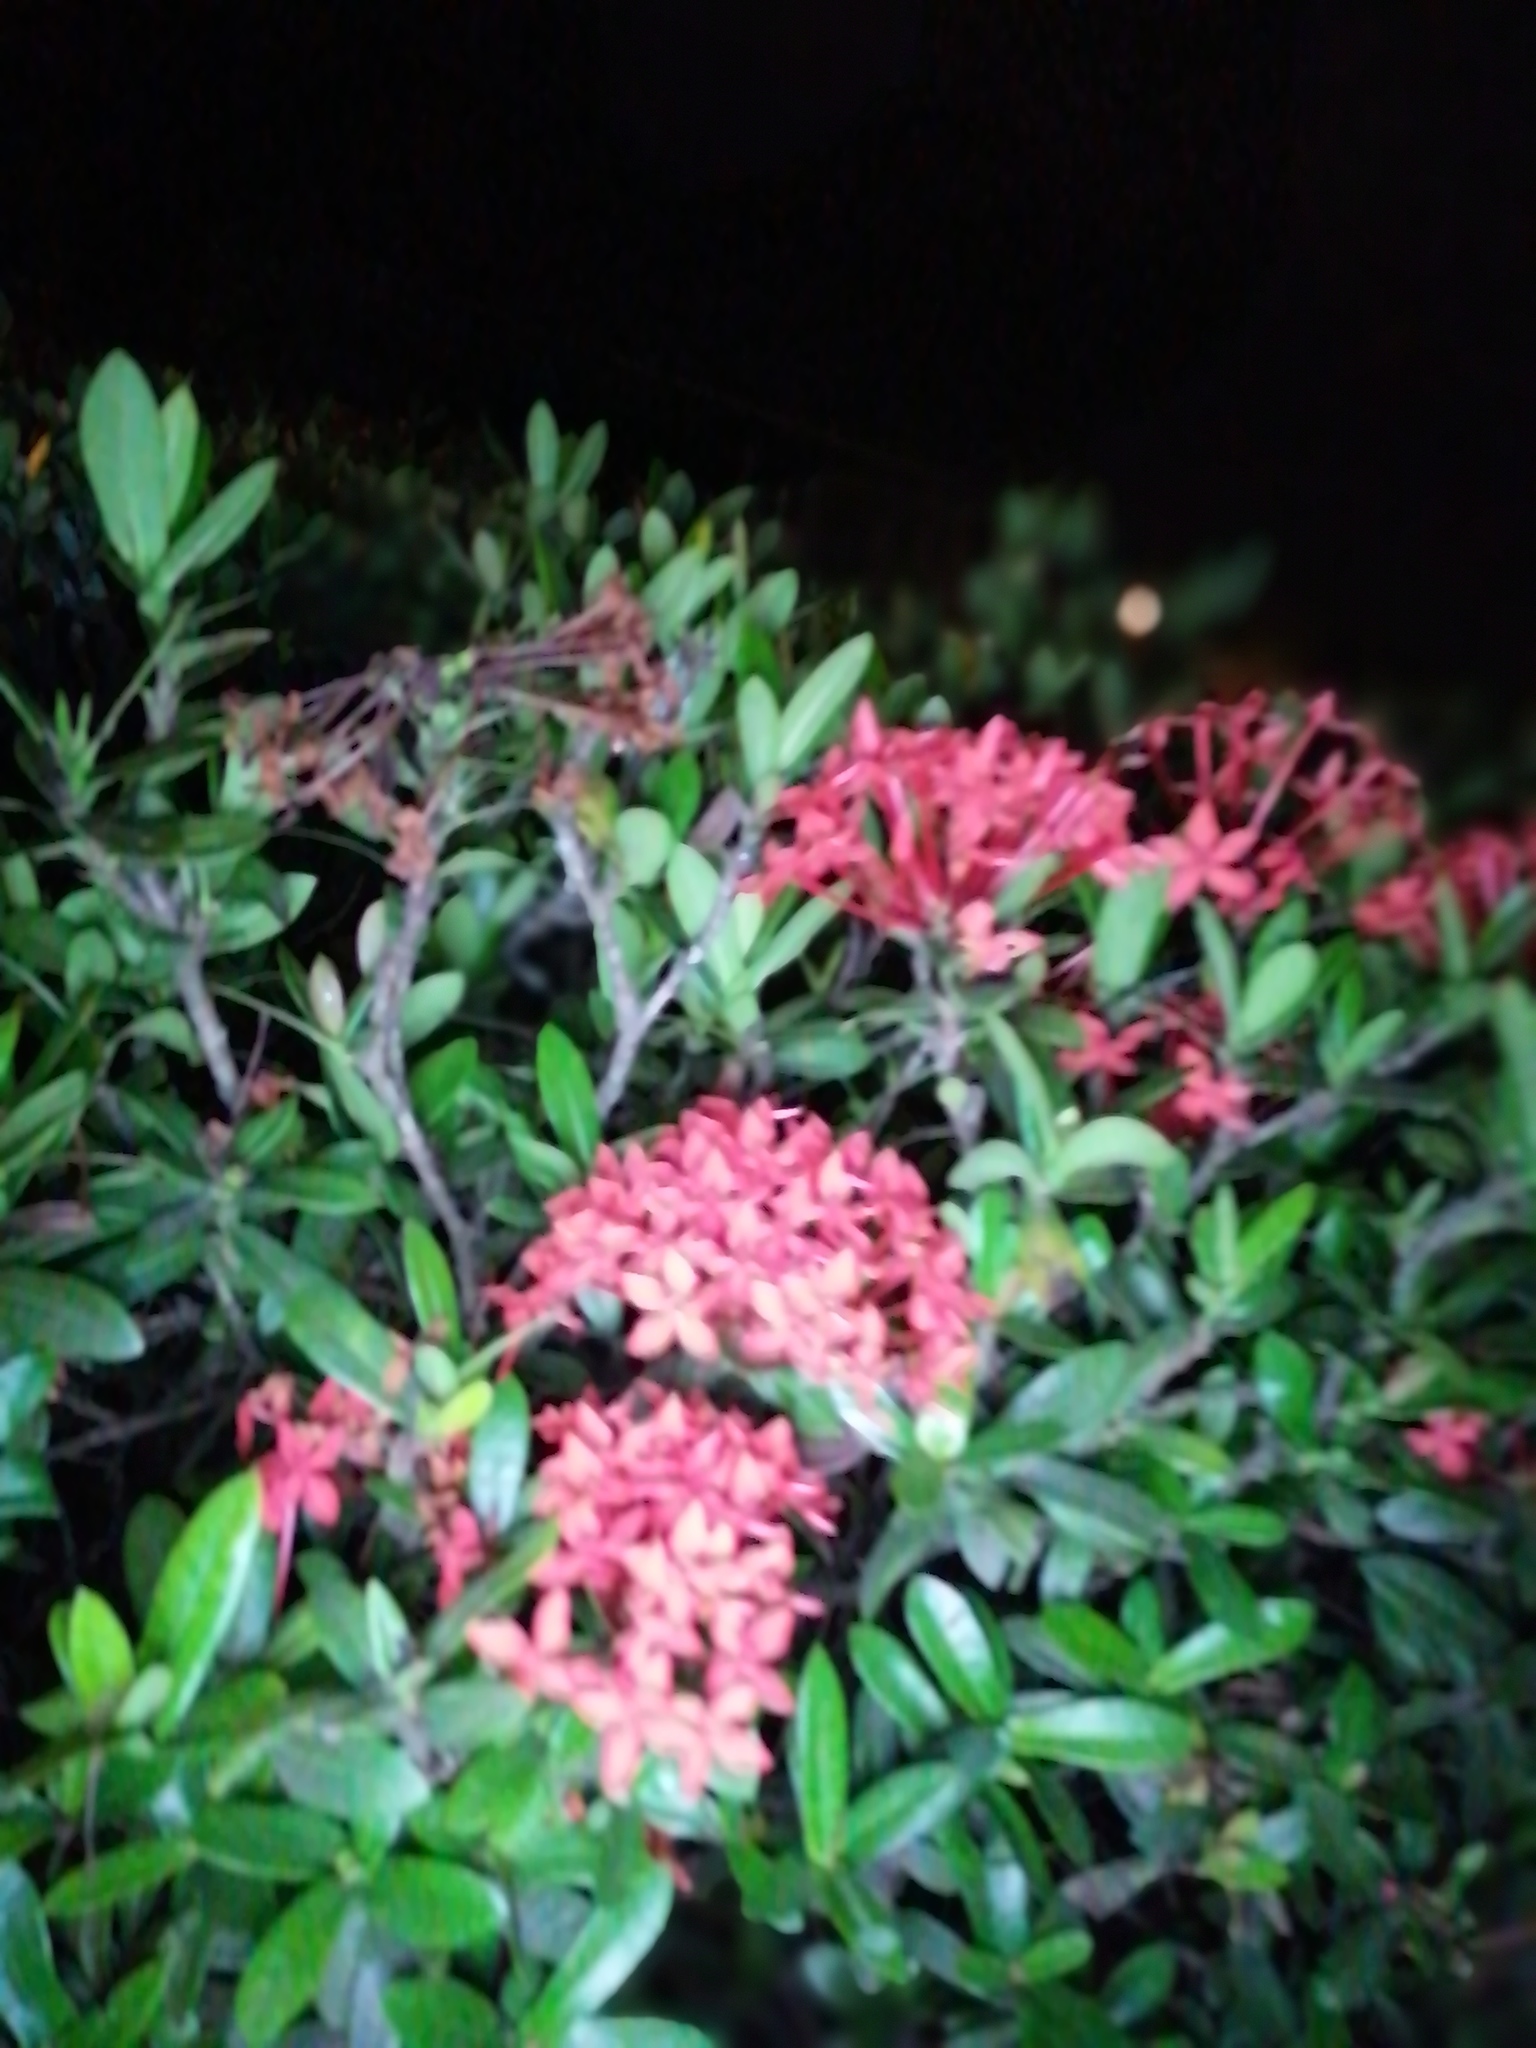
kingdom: Plantae
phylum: Tracheophyta
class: Magnoliopsida
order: Gentianales
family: Rubiaceae
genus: Ixora
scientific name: Ixora coccinea
